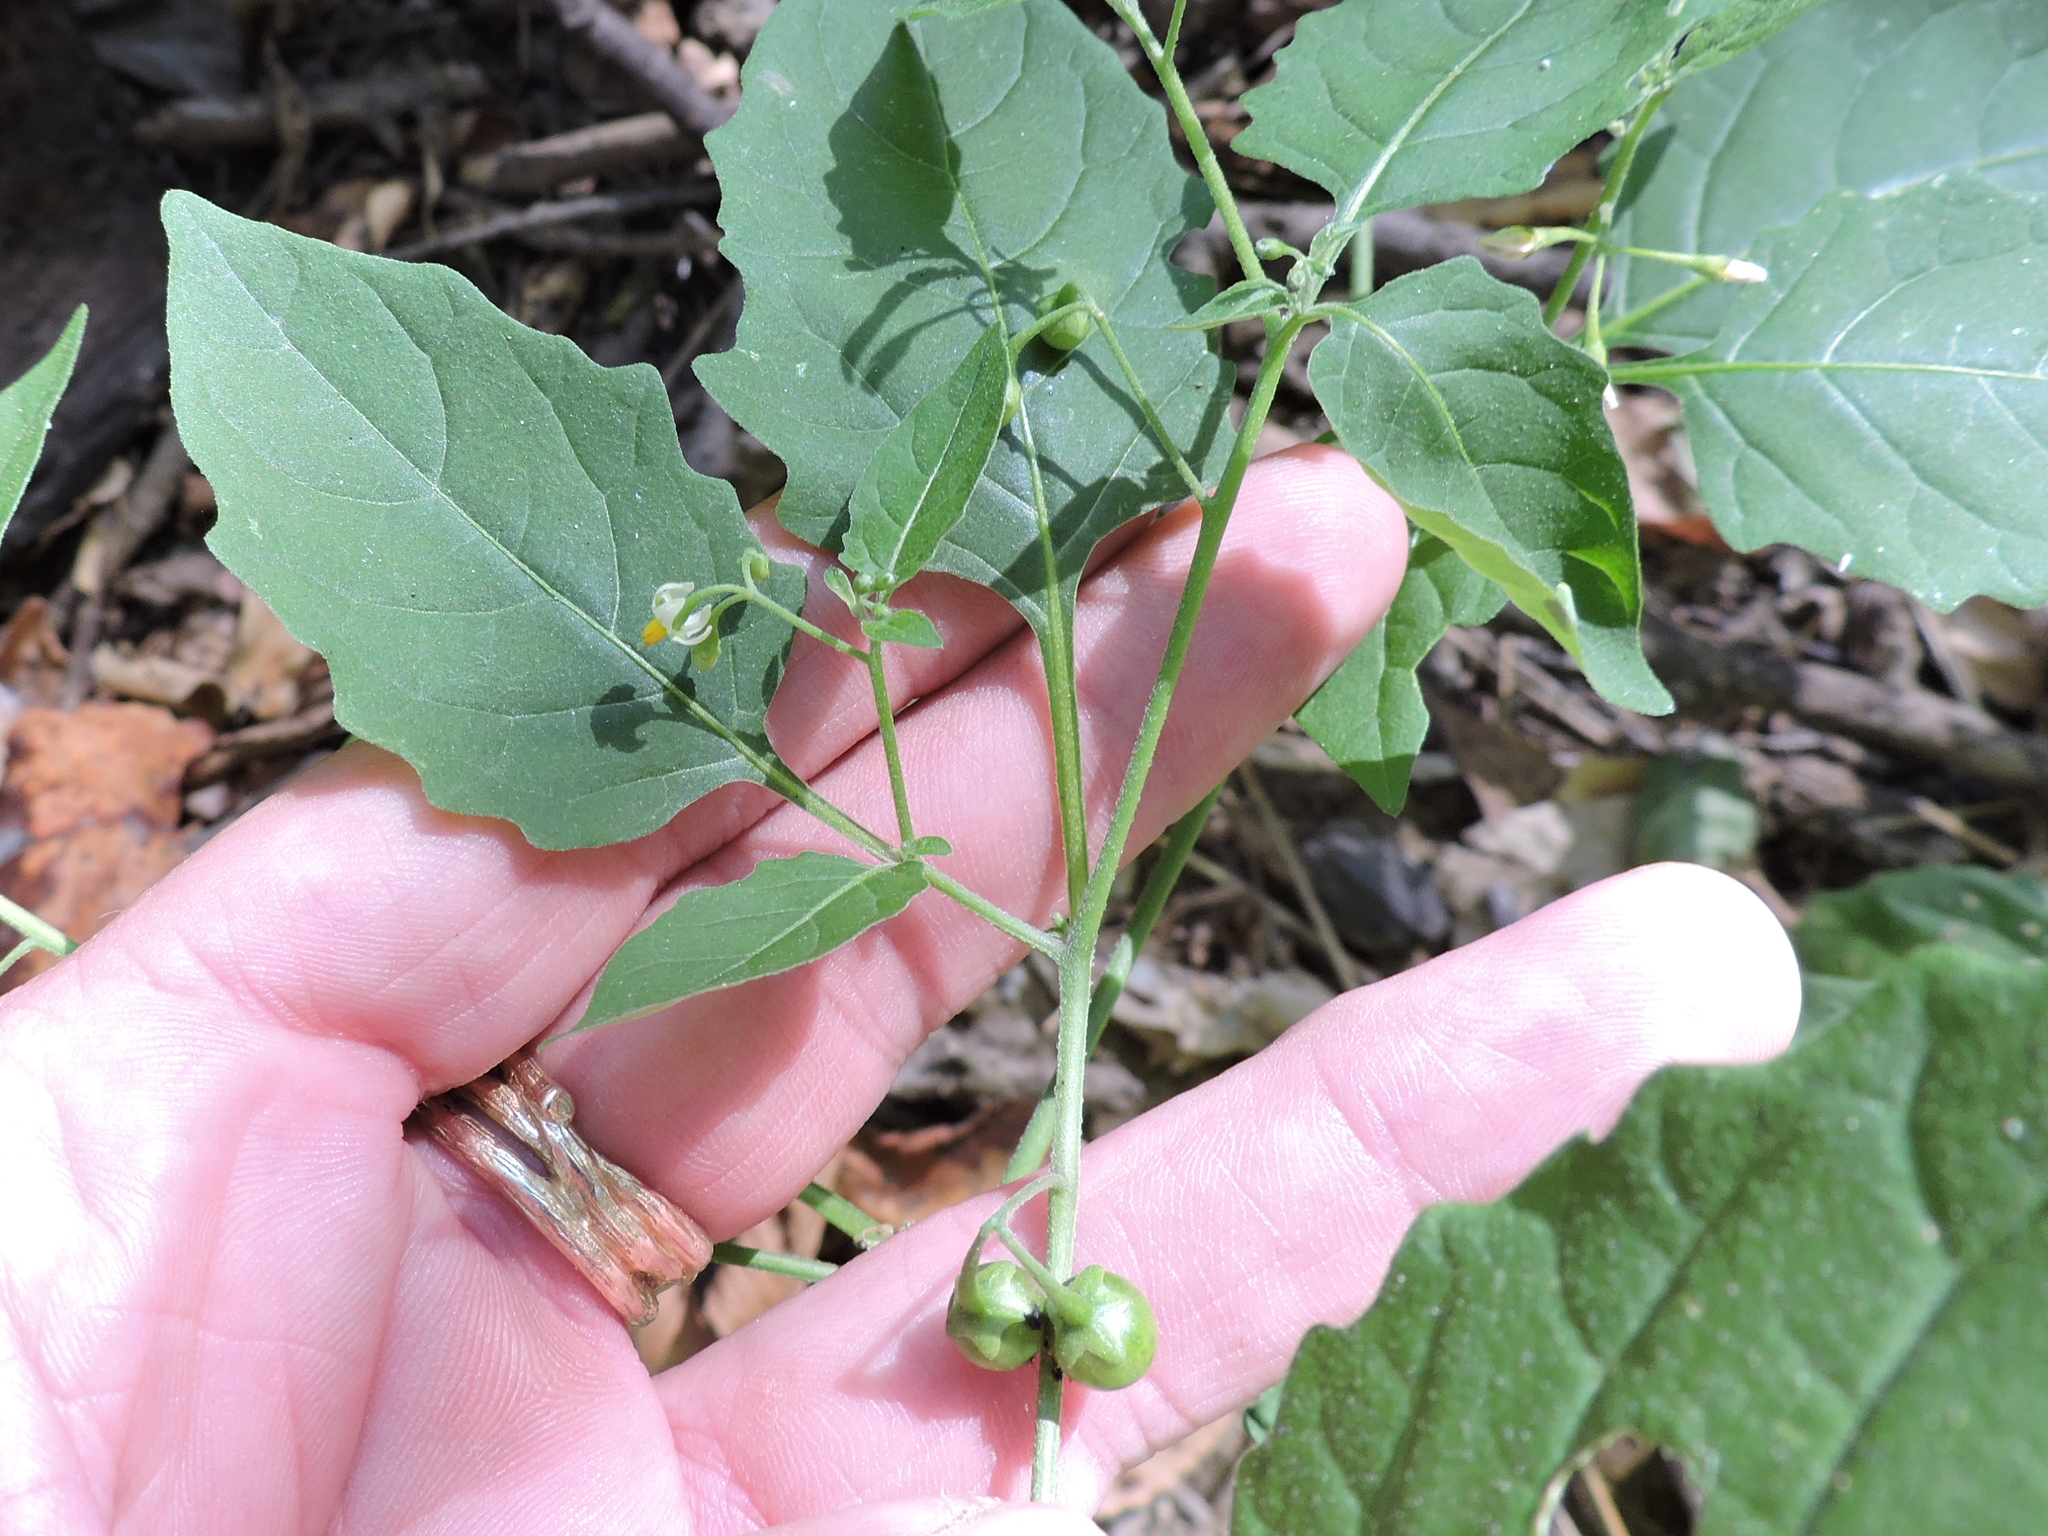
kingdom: Plantae
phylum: Tracheophyta
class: Magnoliopsida
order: Solanales
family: Solanaceae
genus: Solanum
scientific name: Solanum emulans
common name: Eastern black nightshade
